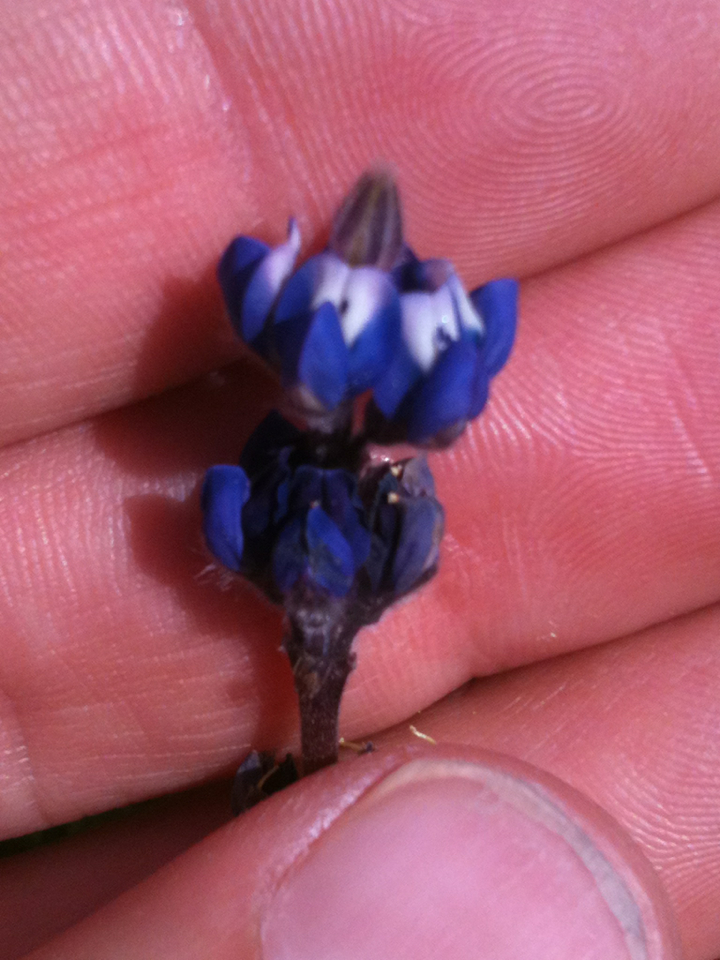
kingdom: Plantae
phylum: Tracheophyta
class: Magnoliopsida
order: Fabales
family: Fabaceae
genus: Lupinus
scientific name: Lupinus bicolor
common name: Miniature lupine
